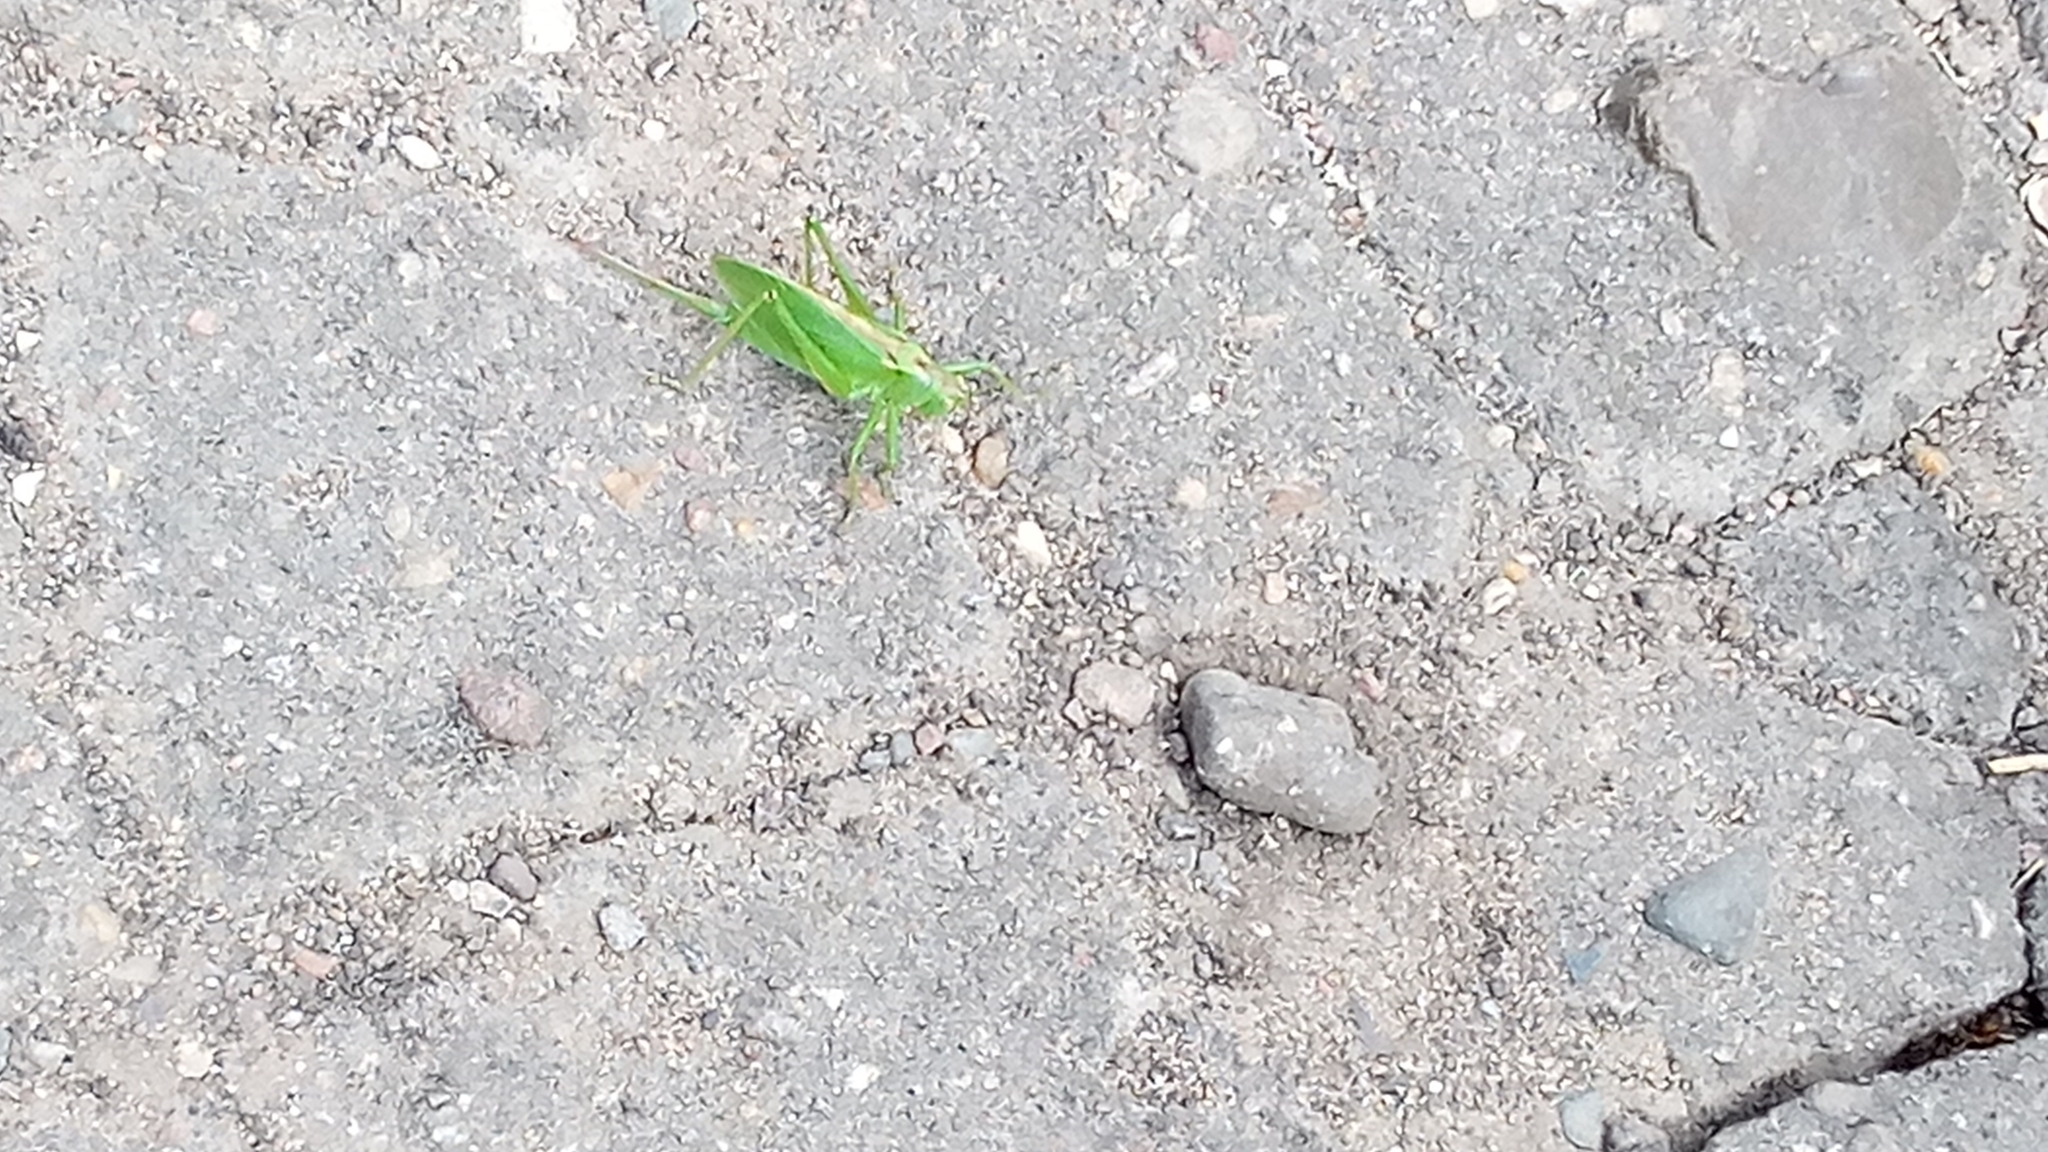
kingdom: Animalia
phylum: Arthropoda
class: Insecta
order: Orthoptera
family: Tettigoniidae
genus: Tettigonia
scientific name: Tettigonia cantans
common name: Upland green bush-cricket
